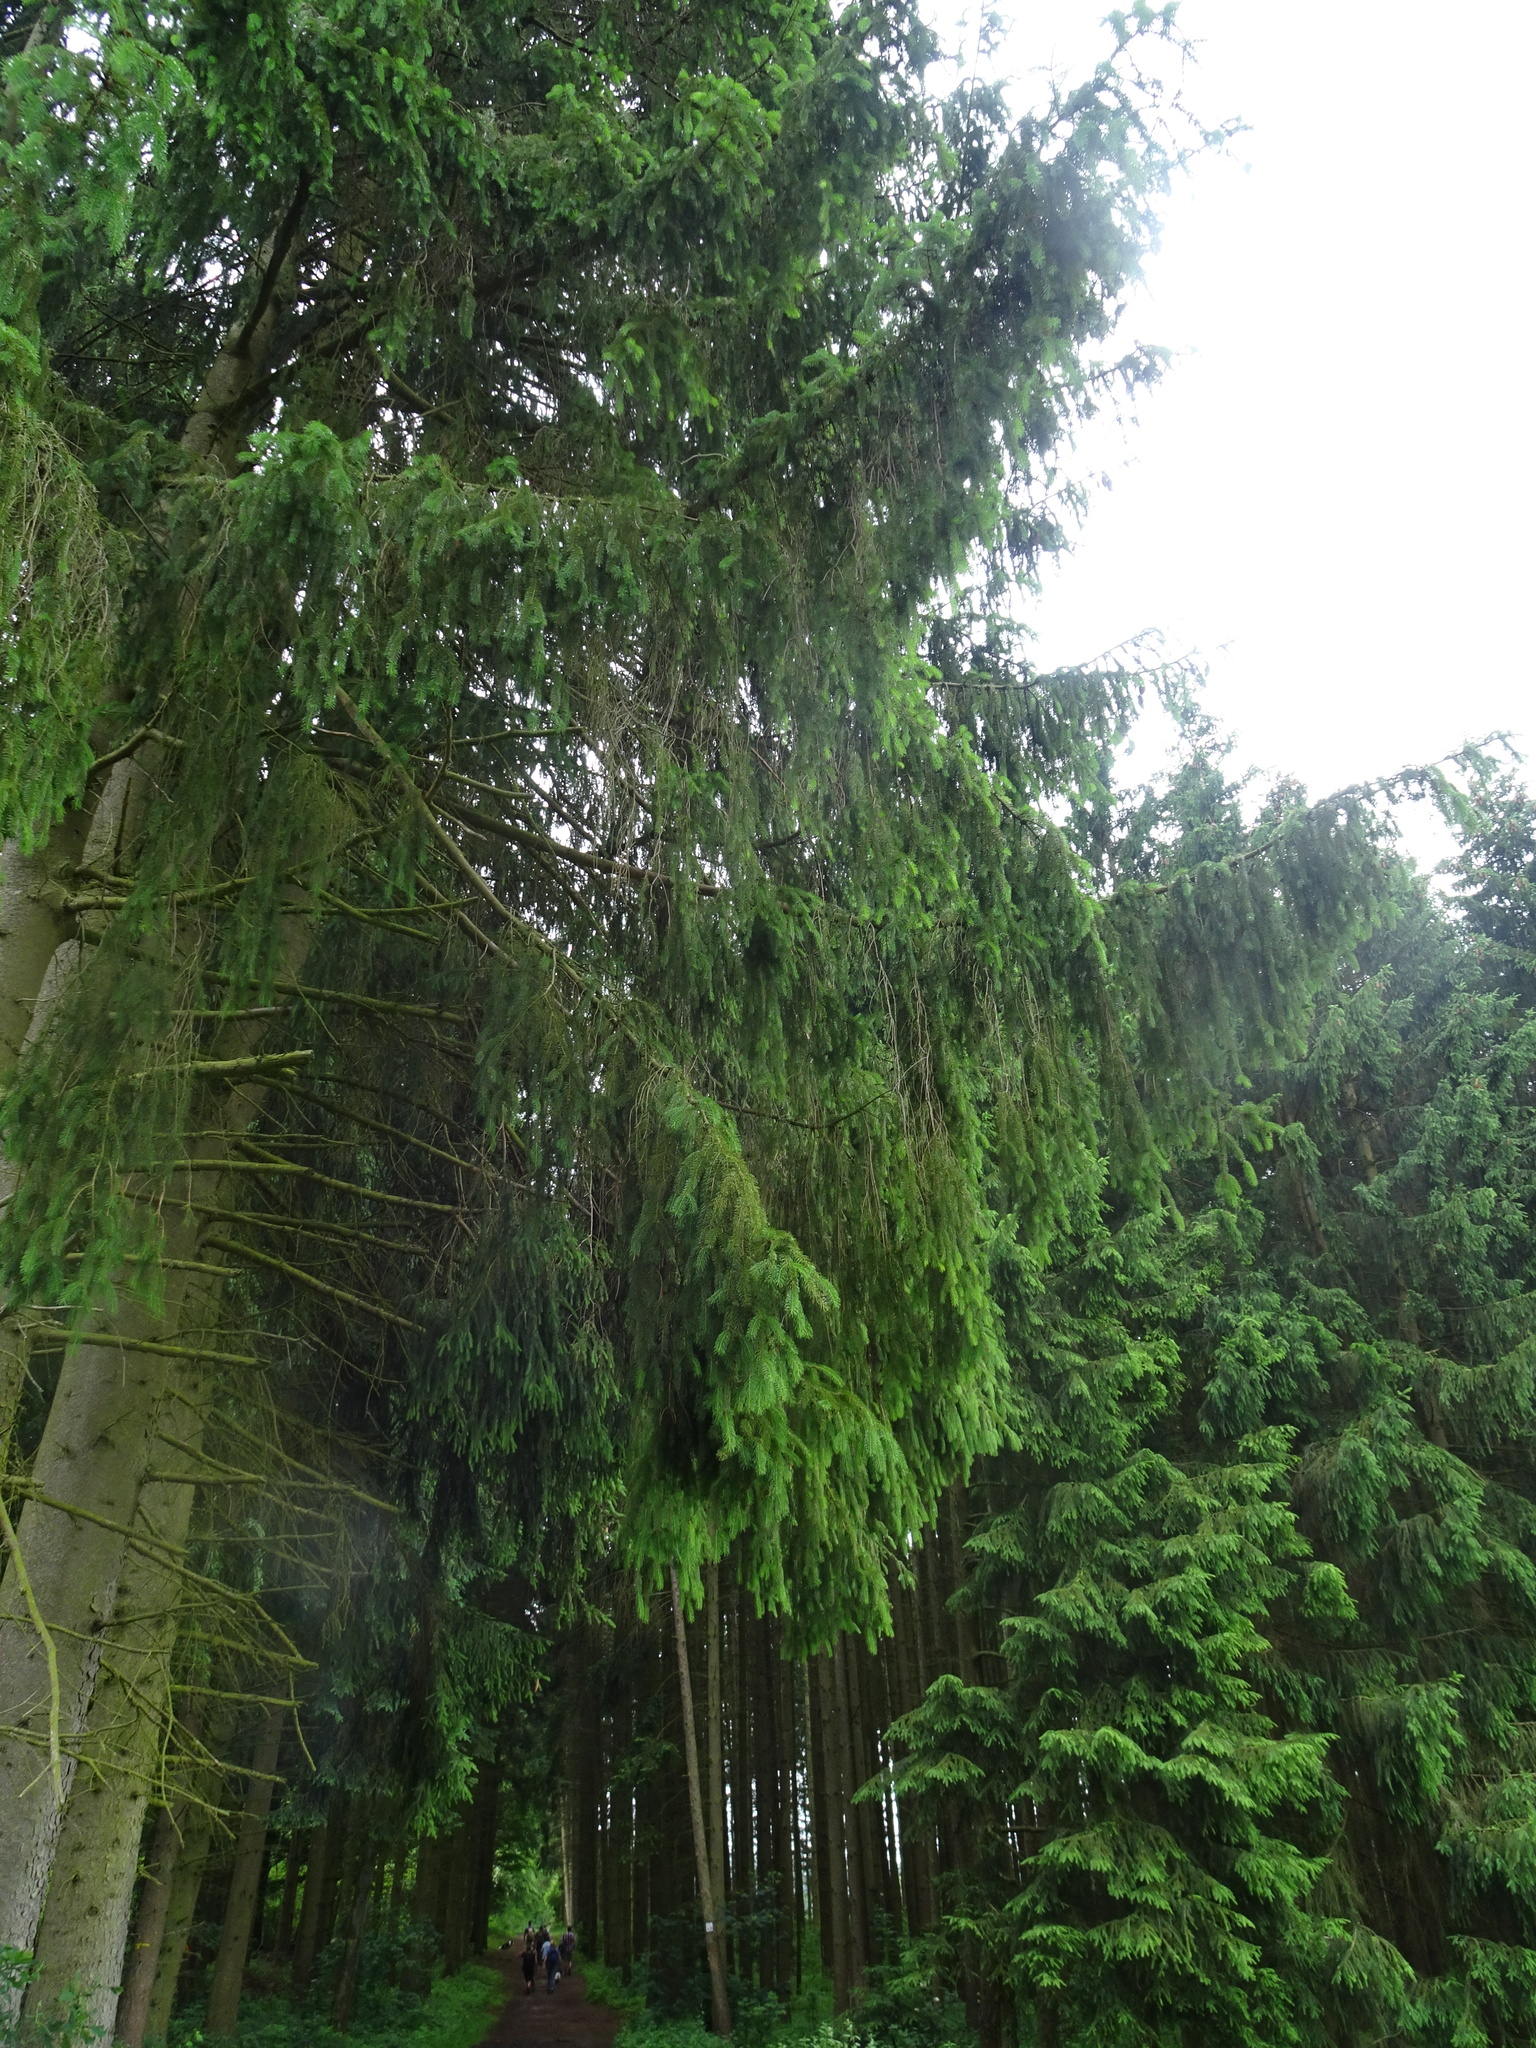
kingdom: Plantae
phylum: Tracheophyta
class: Pinopsida
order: Pinales
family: Pinaceae
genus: Picea
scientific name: Picea abies
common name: Norway spruce
